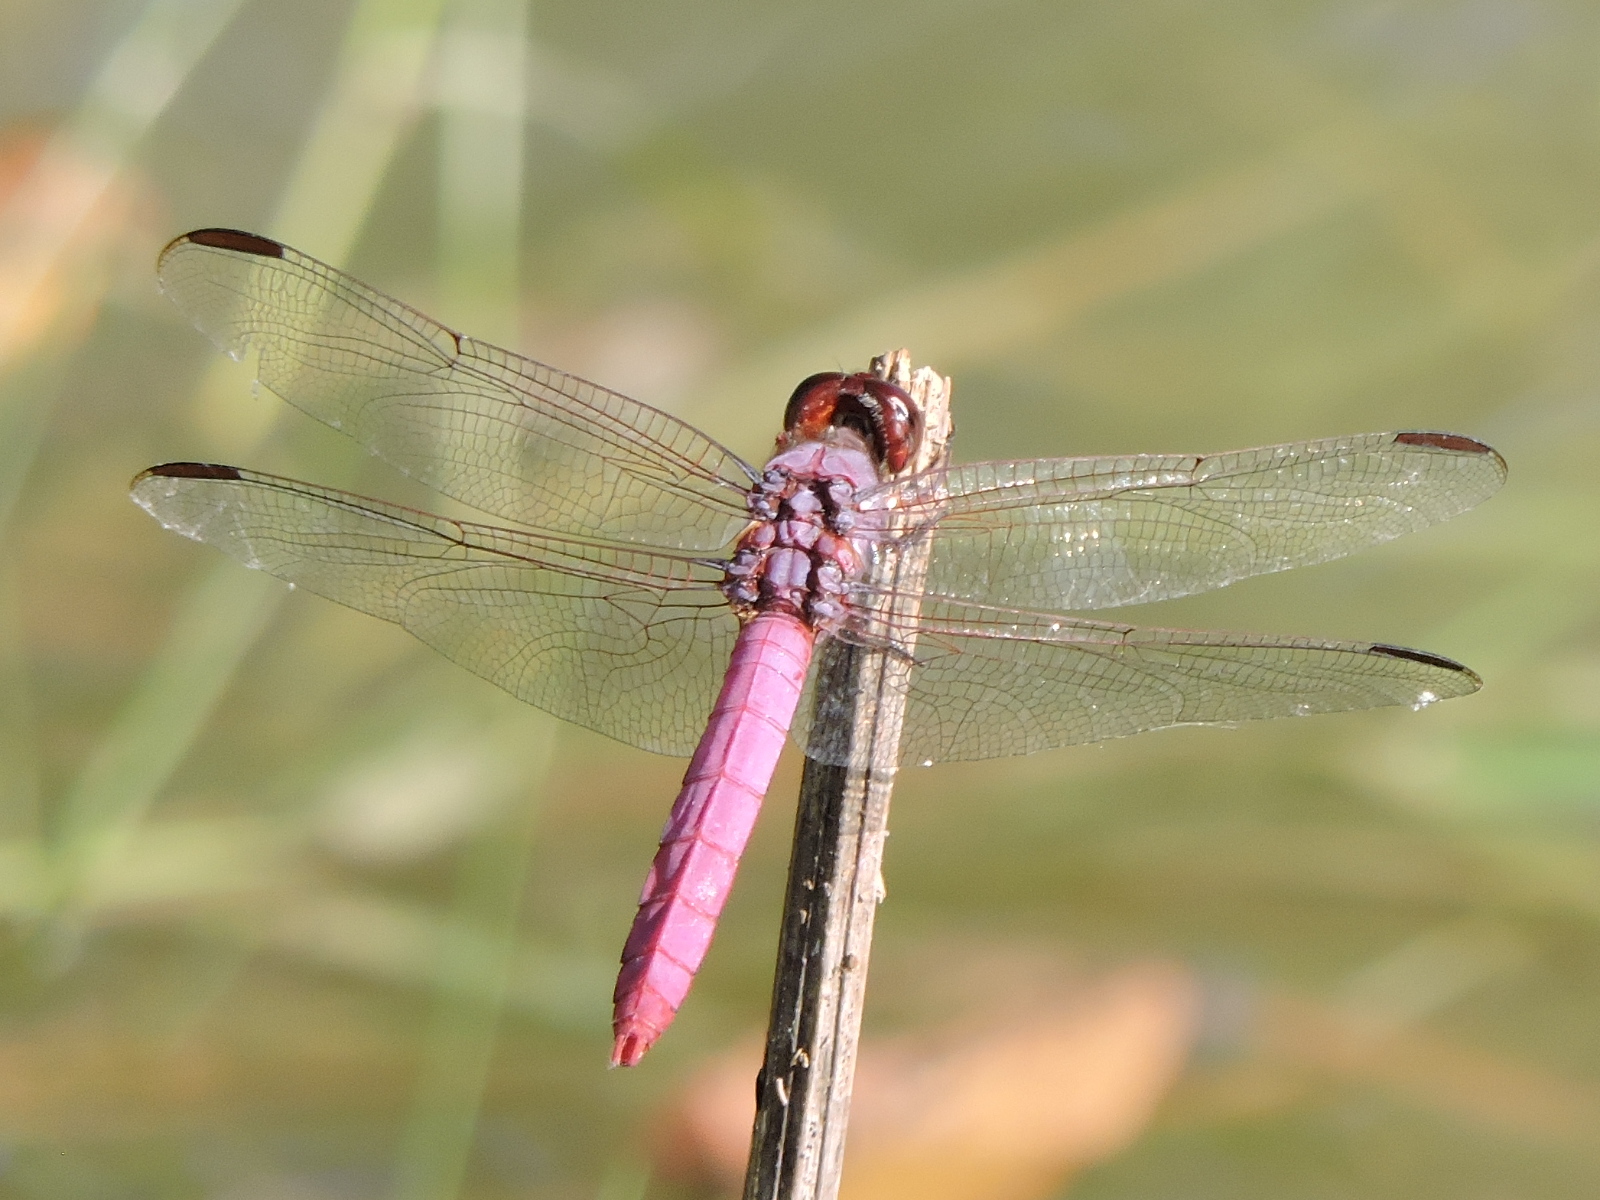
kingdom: Animalia
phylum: Arthropoda
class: Insecta
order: Odonata
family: Libellulidae
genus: Orthemis
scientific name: Orthemis ferruginea
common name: Roseate skimmer
